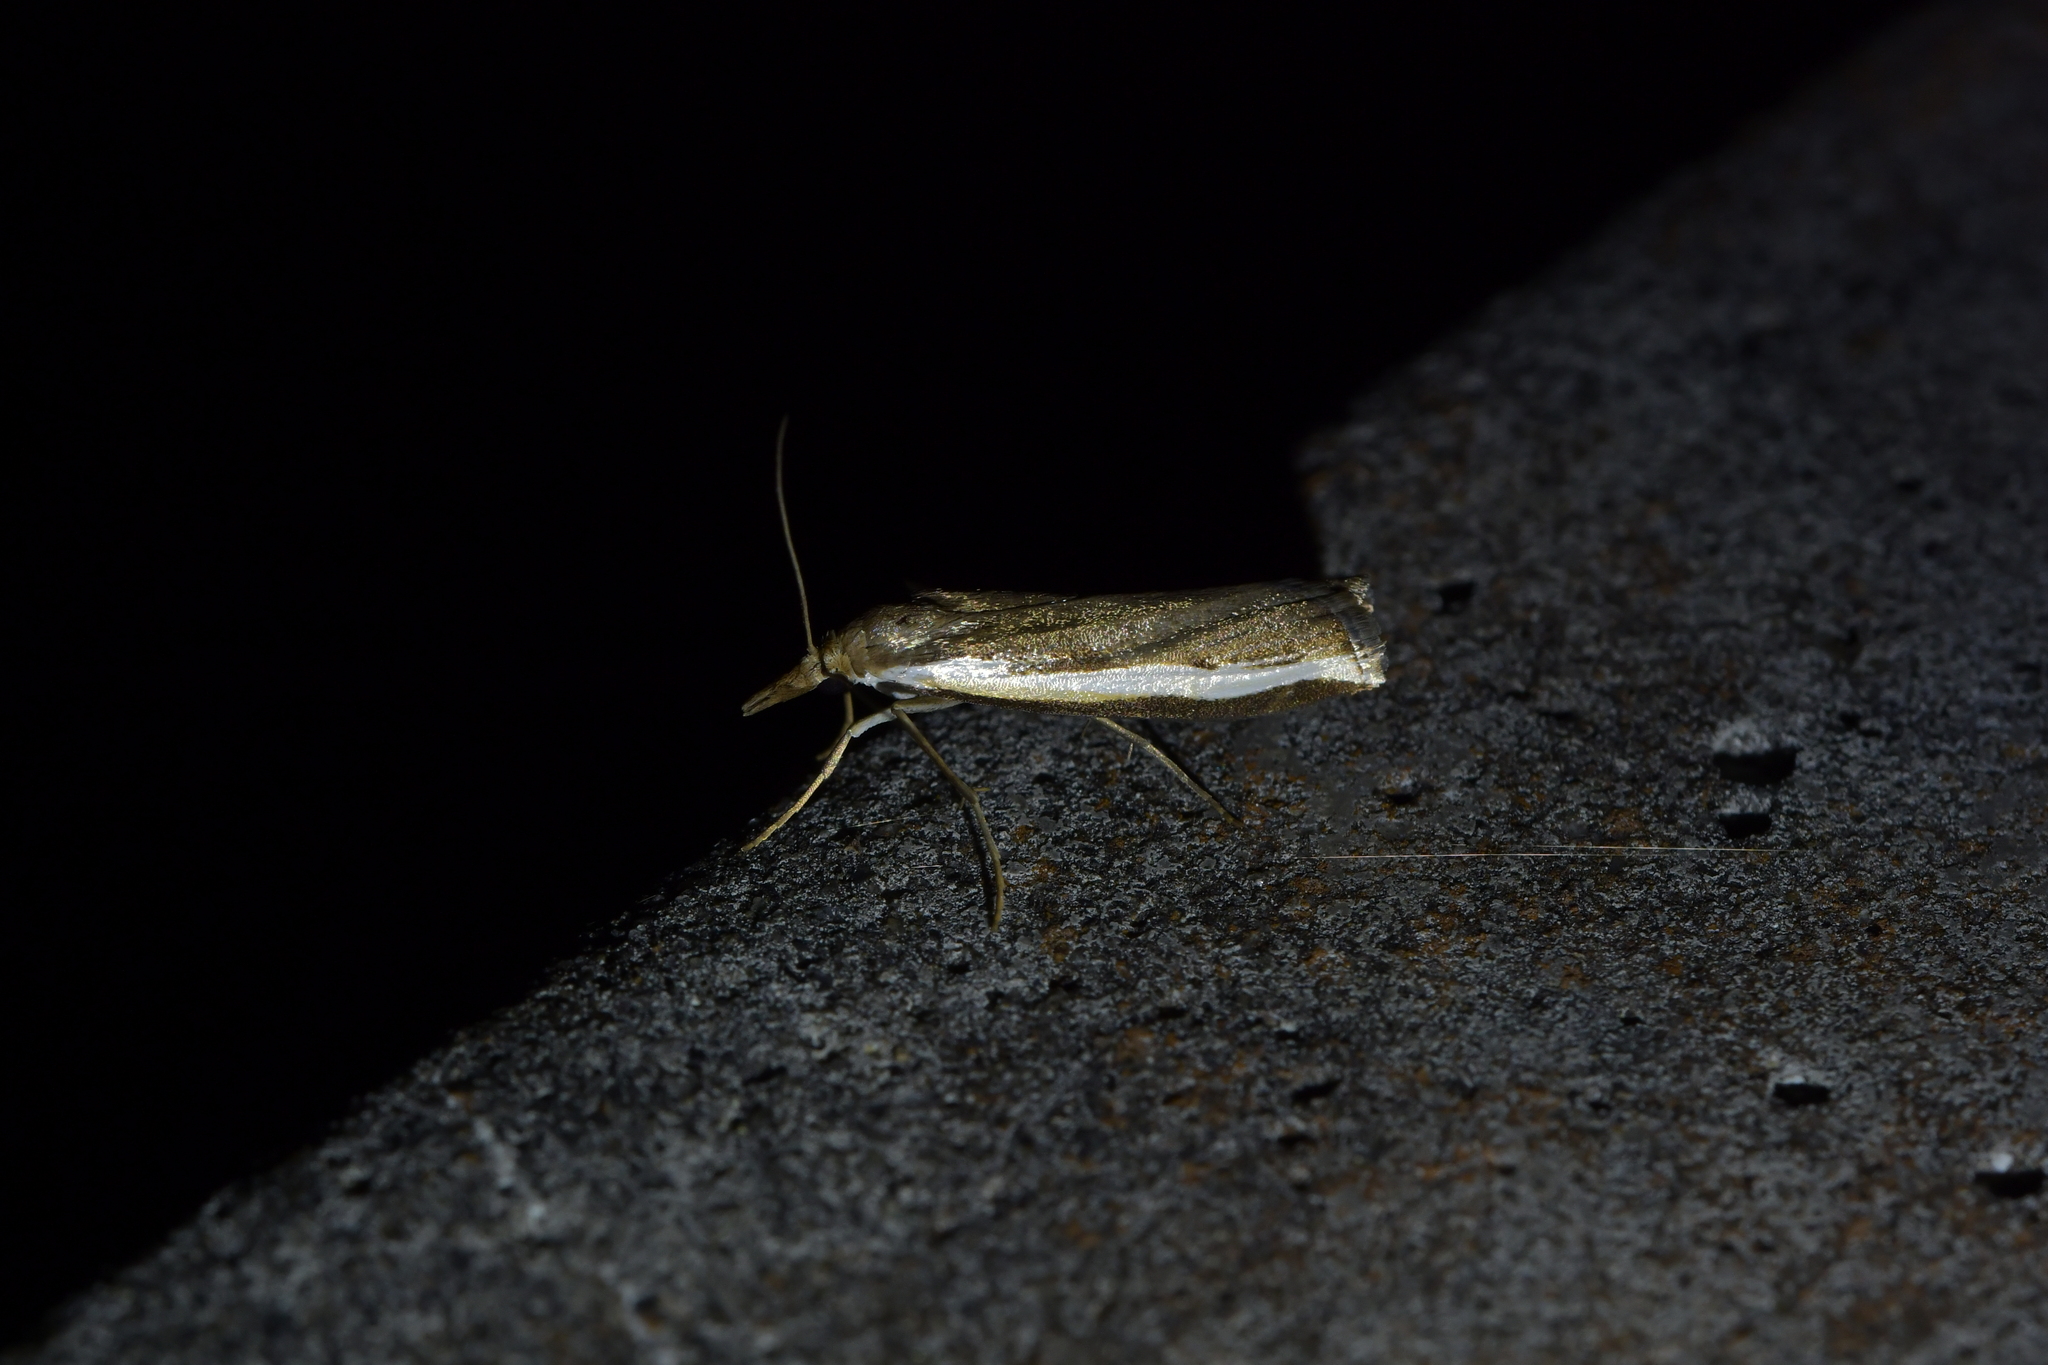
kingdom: Animalia
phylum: Arthropoda
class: Insecta
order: Lepidoptera
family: Crambidae
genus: Orocrambus
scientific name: Orocrambus flexuosellus
